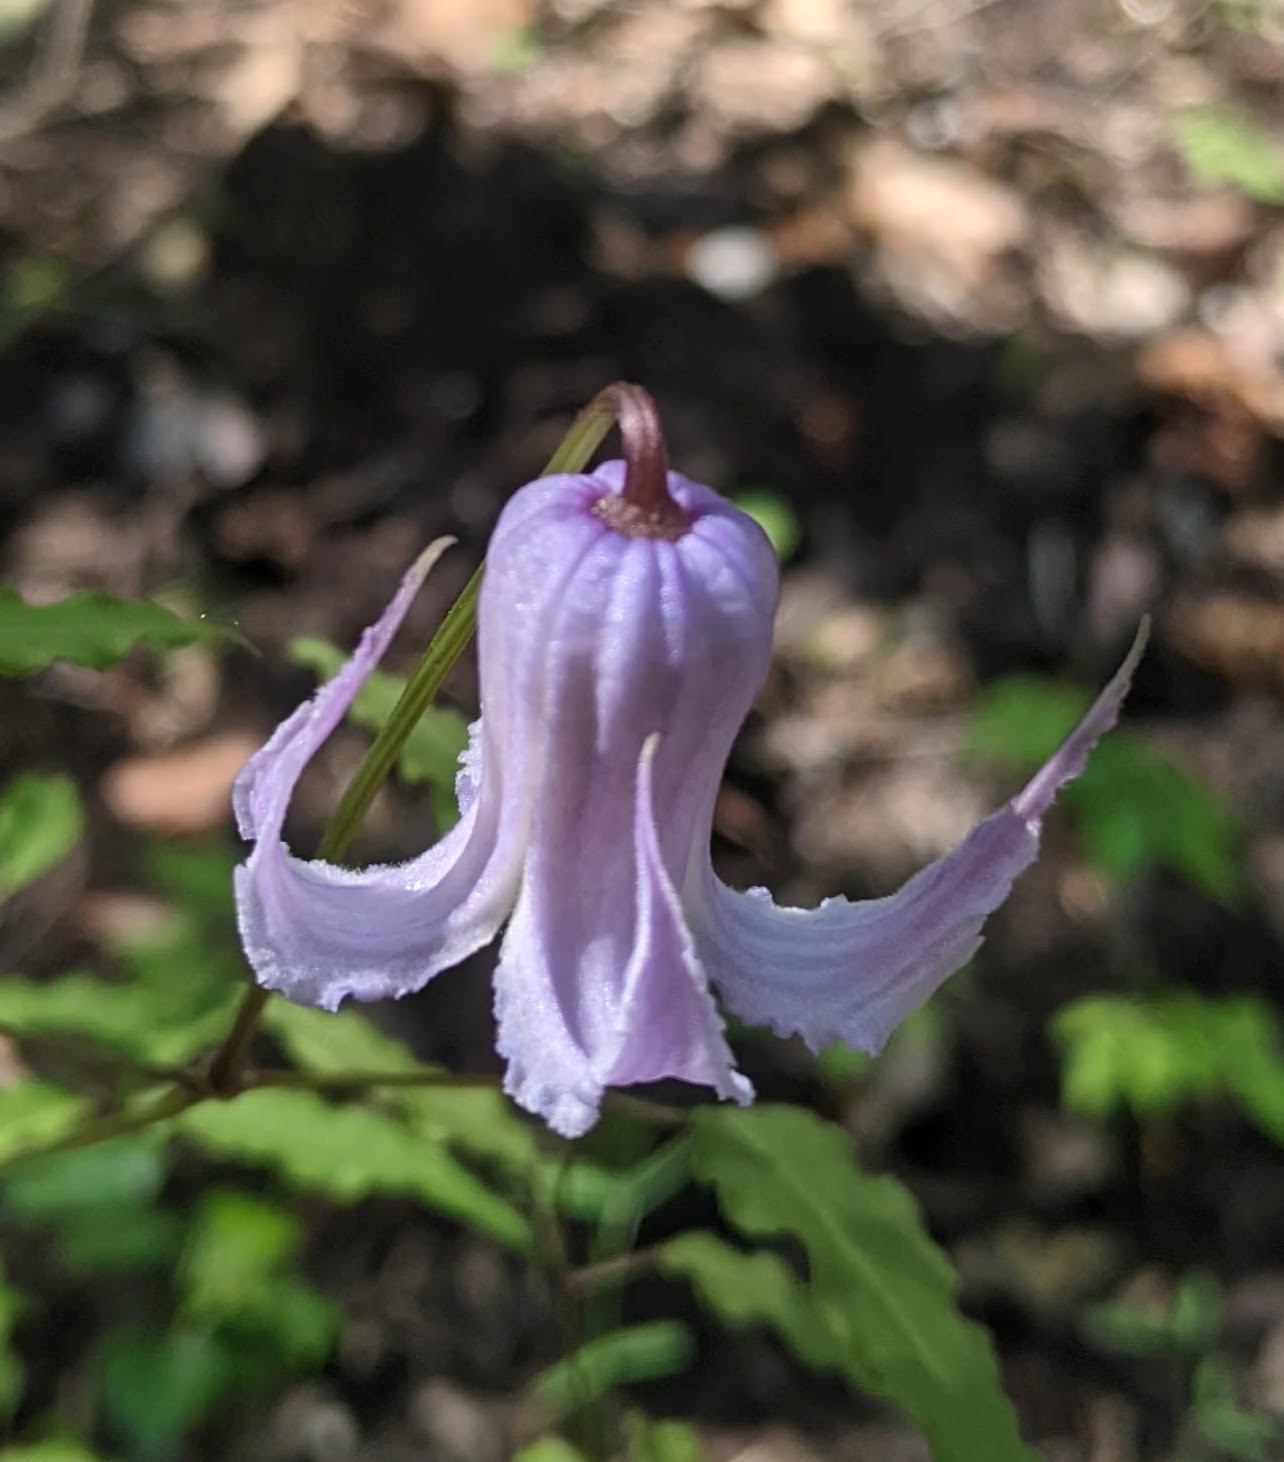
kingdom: Plantae
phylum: Tracheophyta
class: Magnoliopsida
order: Ranunculales
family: Ranunculaceae
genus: Clematis
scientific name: Clematis crispa
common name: Curly clematis
